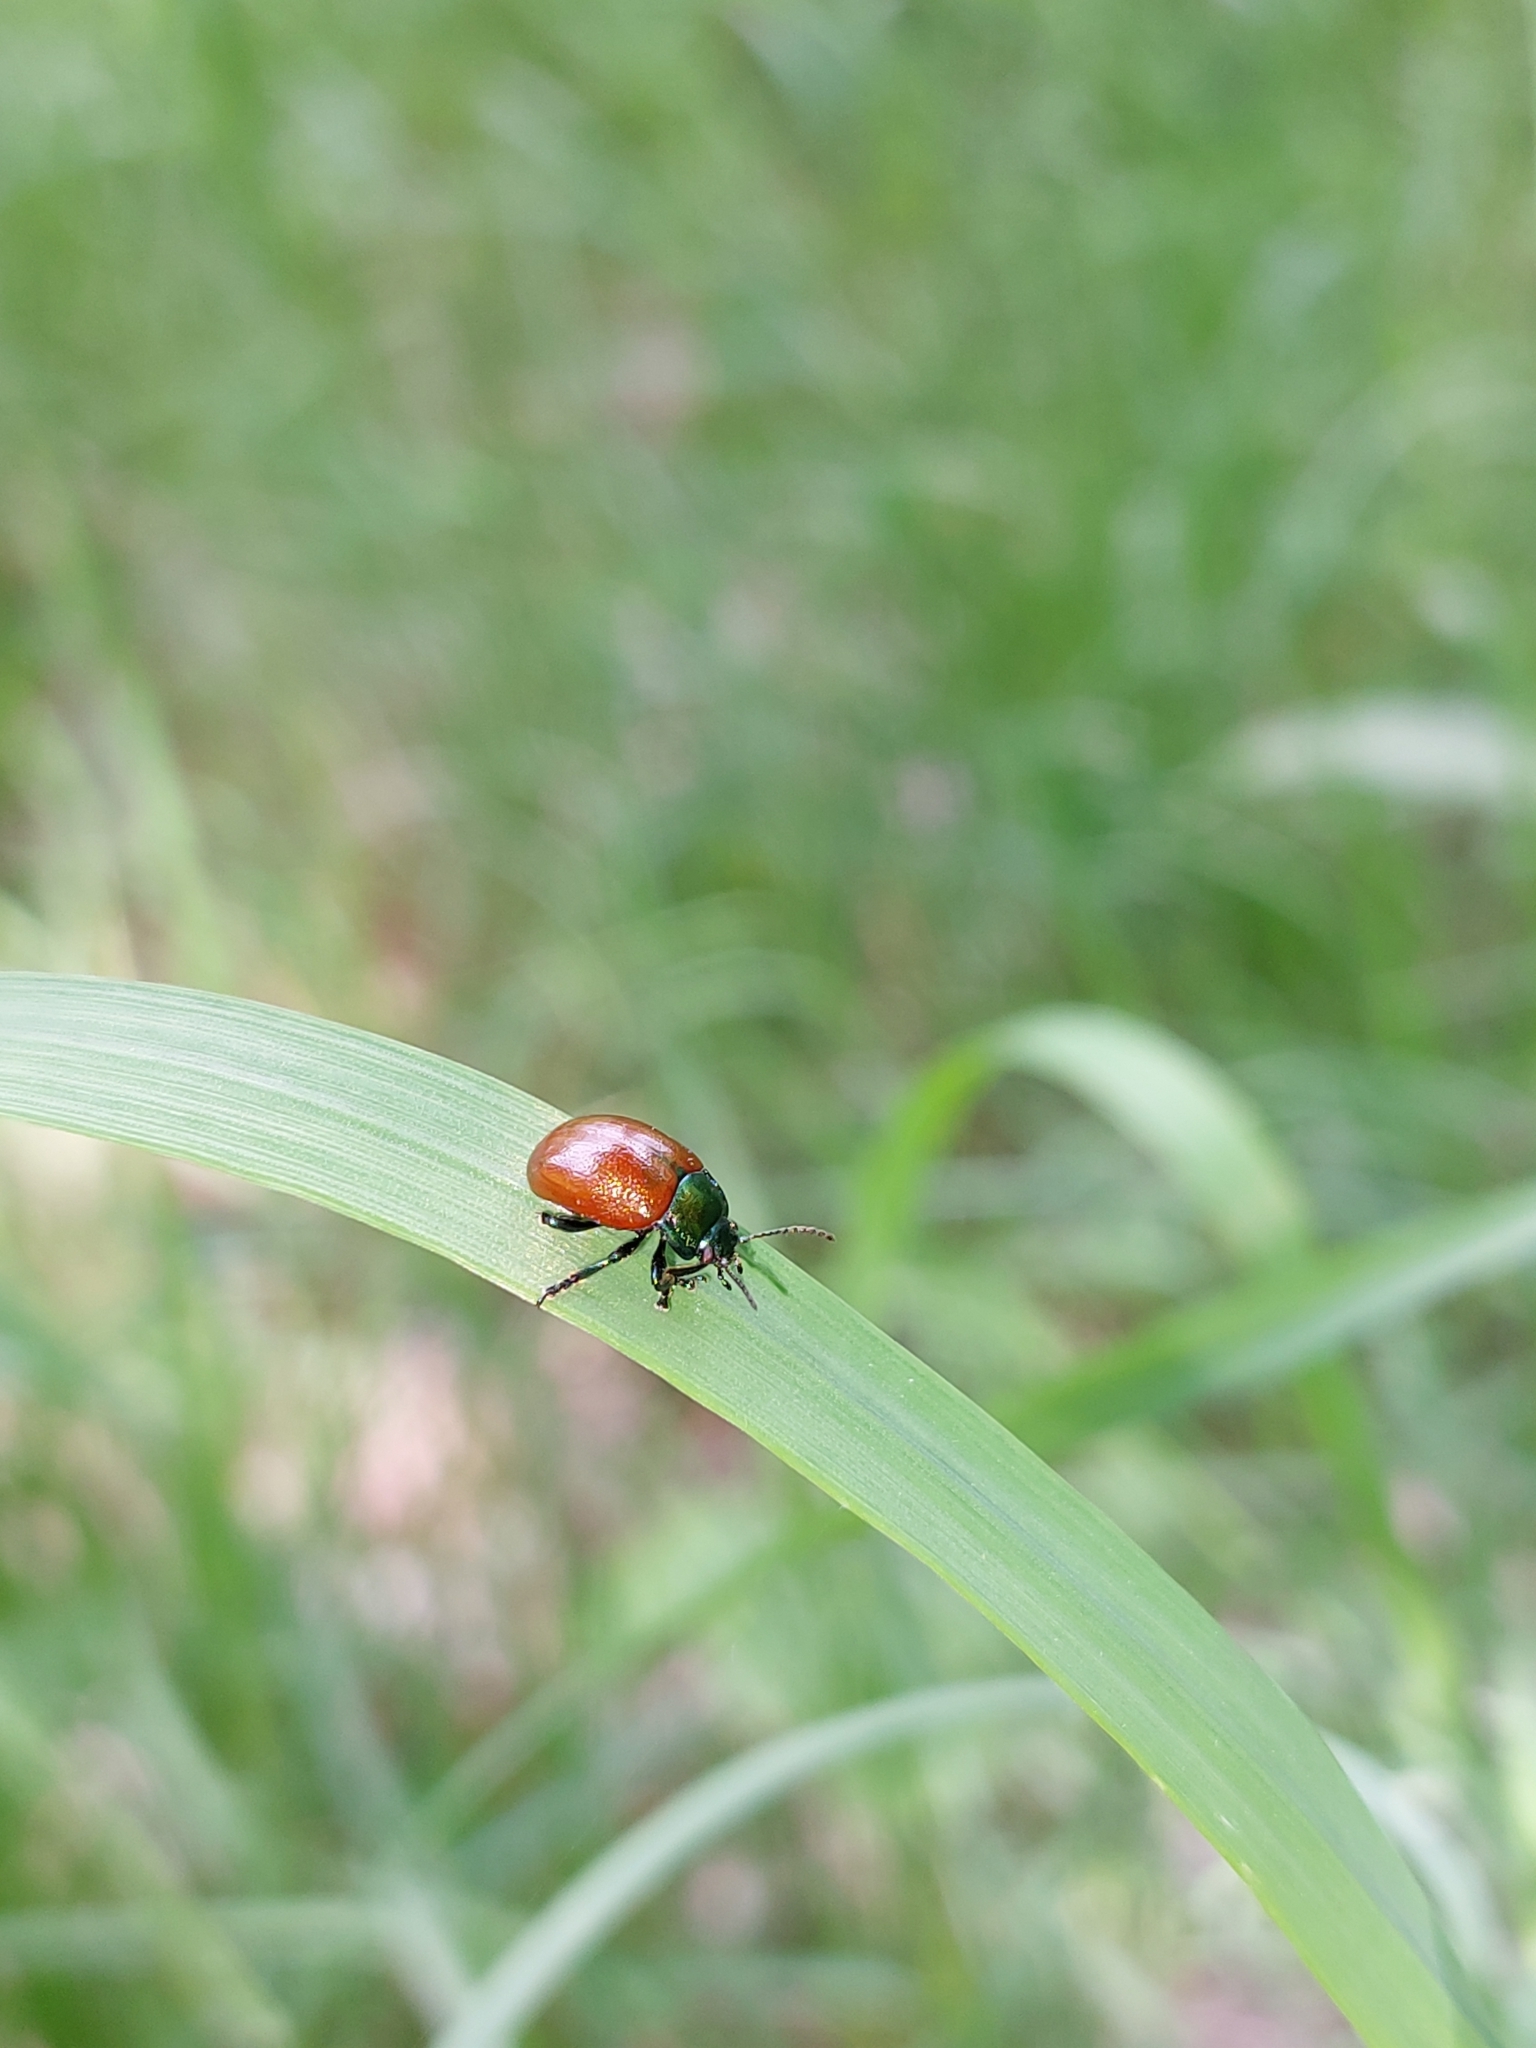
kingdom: Animalia
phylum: Arthropoda
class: Insecta
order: Coleoptera
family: Chrysomelidae
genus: Chrysomela
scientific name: Chrysomela polita
